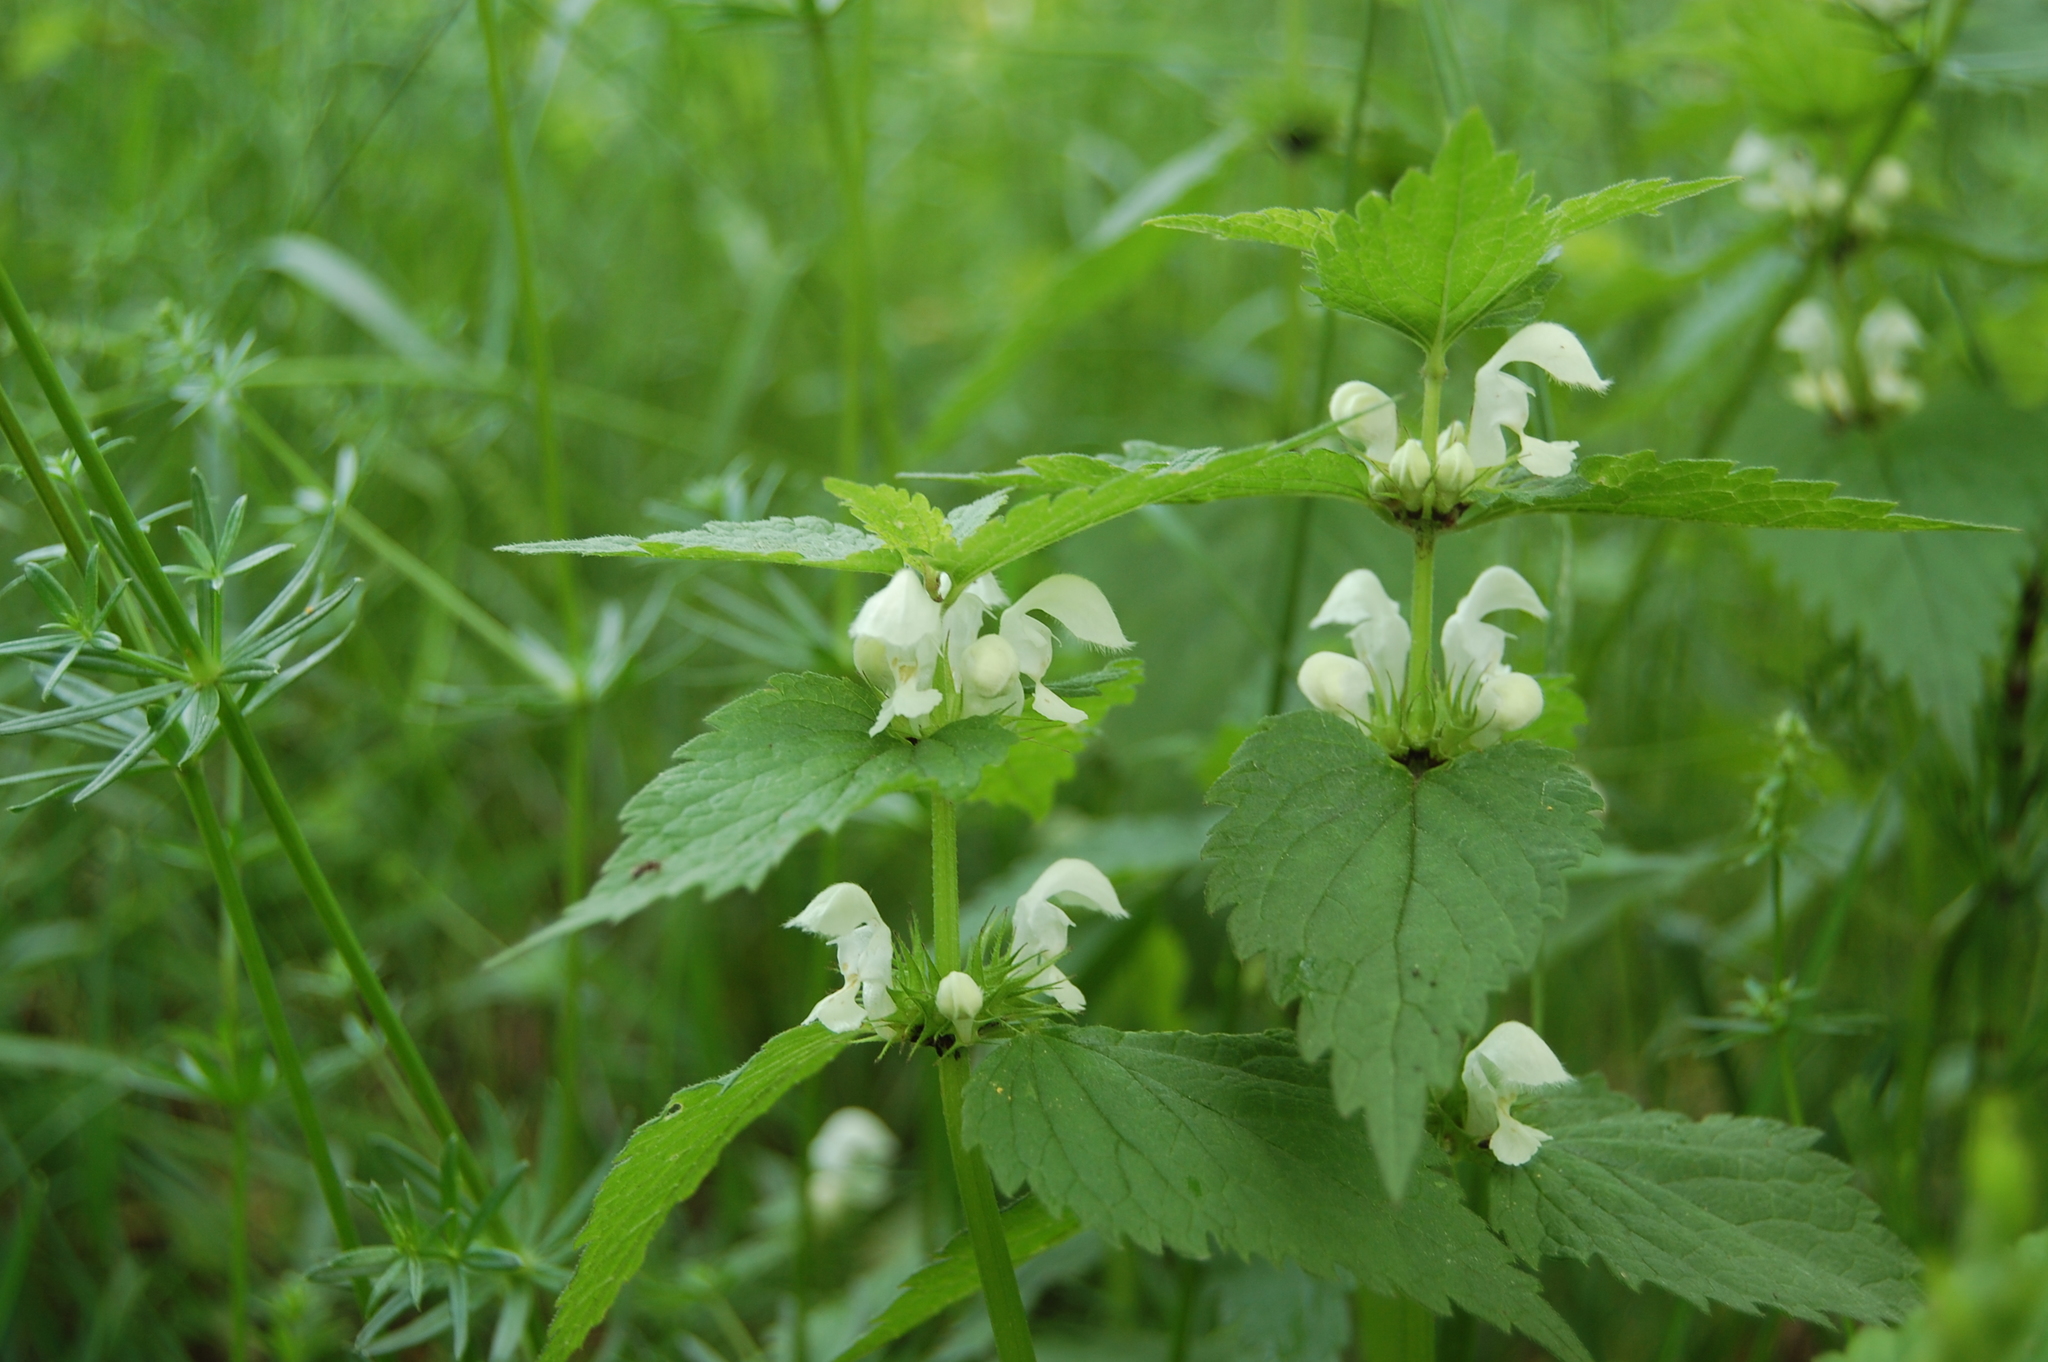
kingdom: Plantae
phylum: Tracheophyta
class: Magnoliopsida
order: Lamiales
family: Lamiaceae
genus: Lamium
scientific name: Lamium album
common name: White dead-nettle
